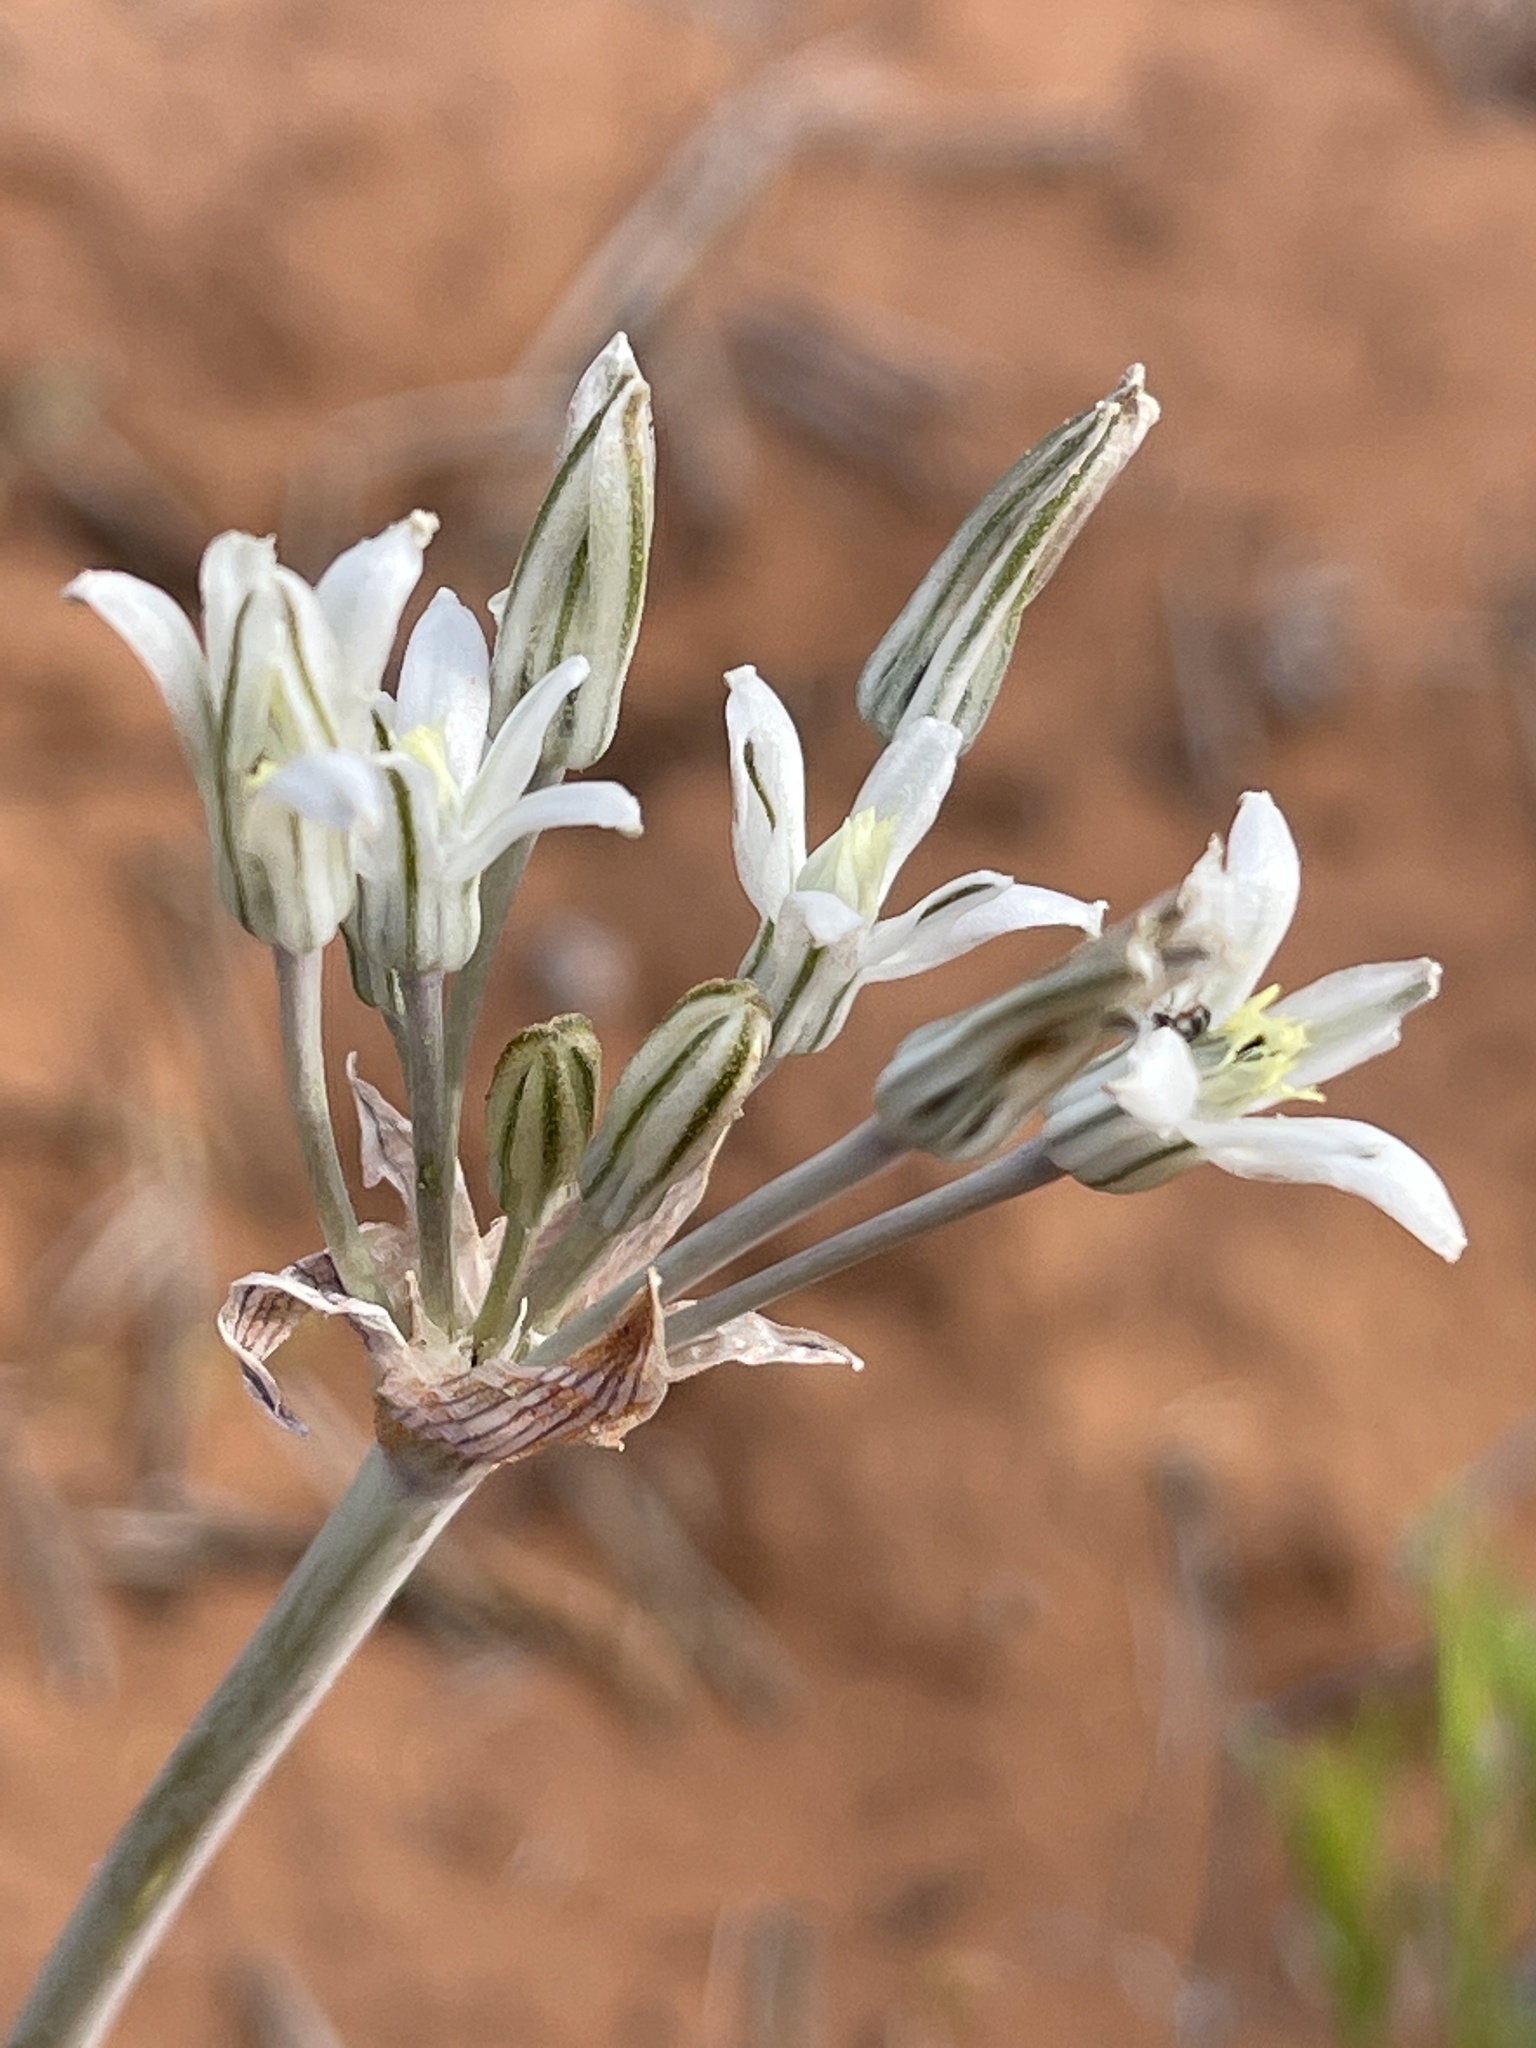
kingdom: Plantae
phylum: Tracheophyta
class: Liliopsida
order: Asparagales
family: Asparagaceae
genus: Androstephium
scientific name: Androstephium breviflorum
